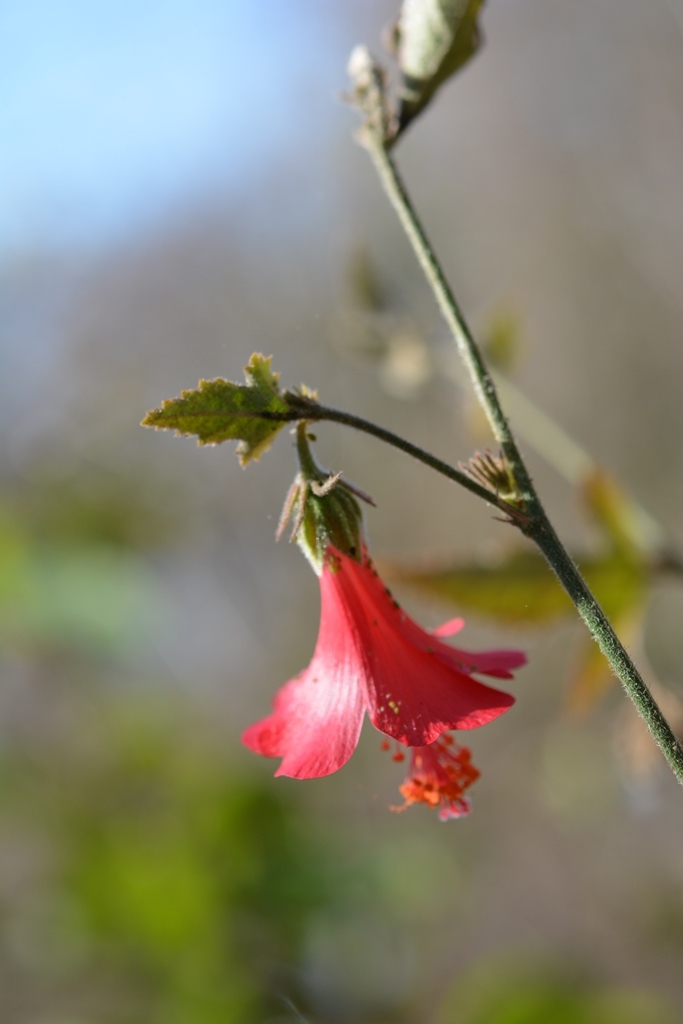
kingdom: Plantae
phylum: Tracheophyta
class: Magnoliopsida
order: Malvales
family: Malvaceae
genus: Hibiscus
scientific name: Hibiscus poeppigii
